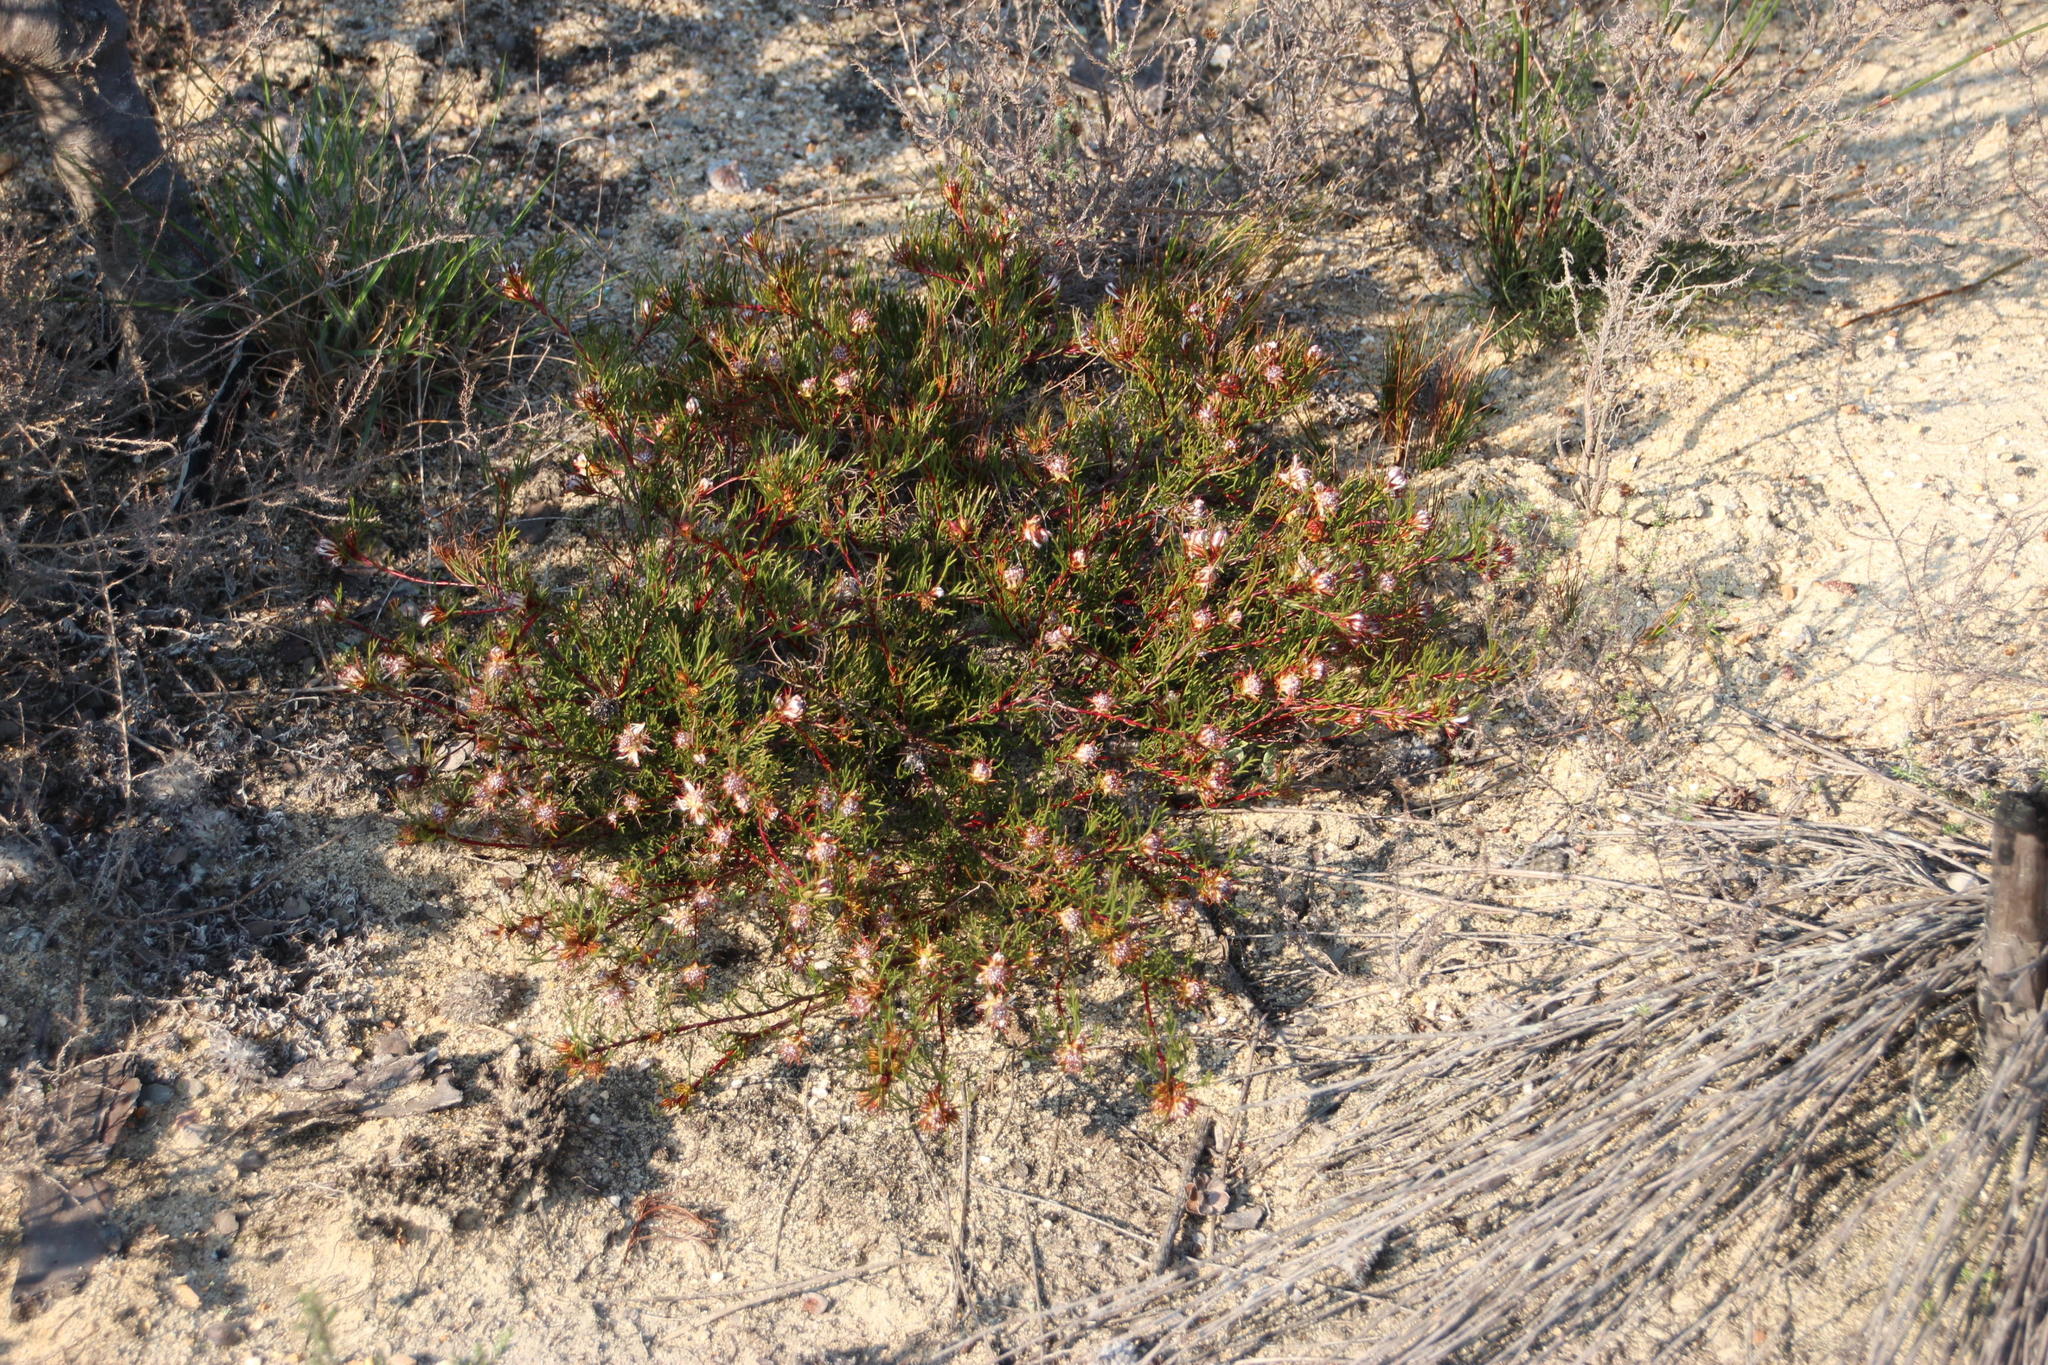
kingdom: Plantae
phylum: Tracheophyta
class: Magnoliopsida
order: Proteales
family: Proteaceae
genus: Serruria
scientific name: Serruria bolusii
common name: Agulhas spiderhead
